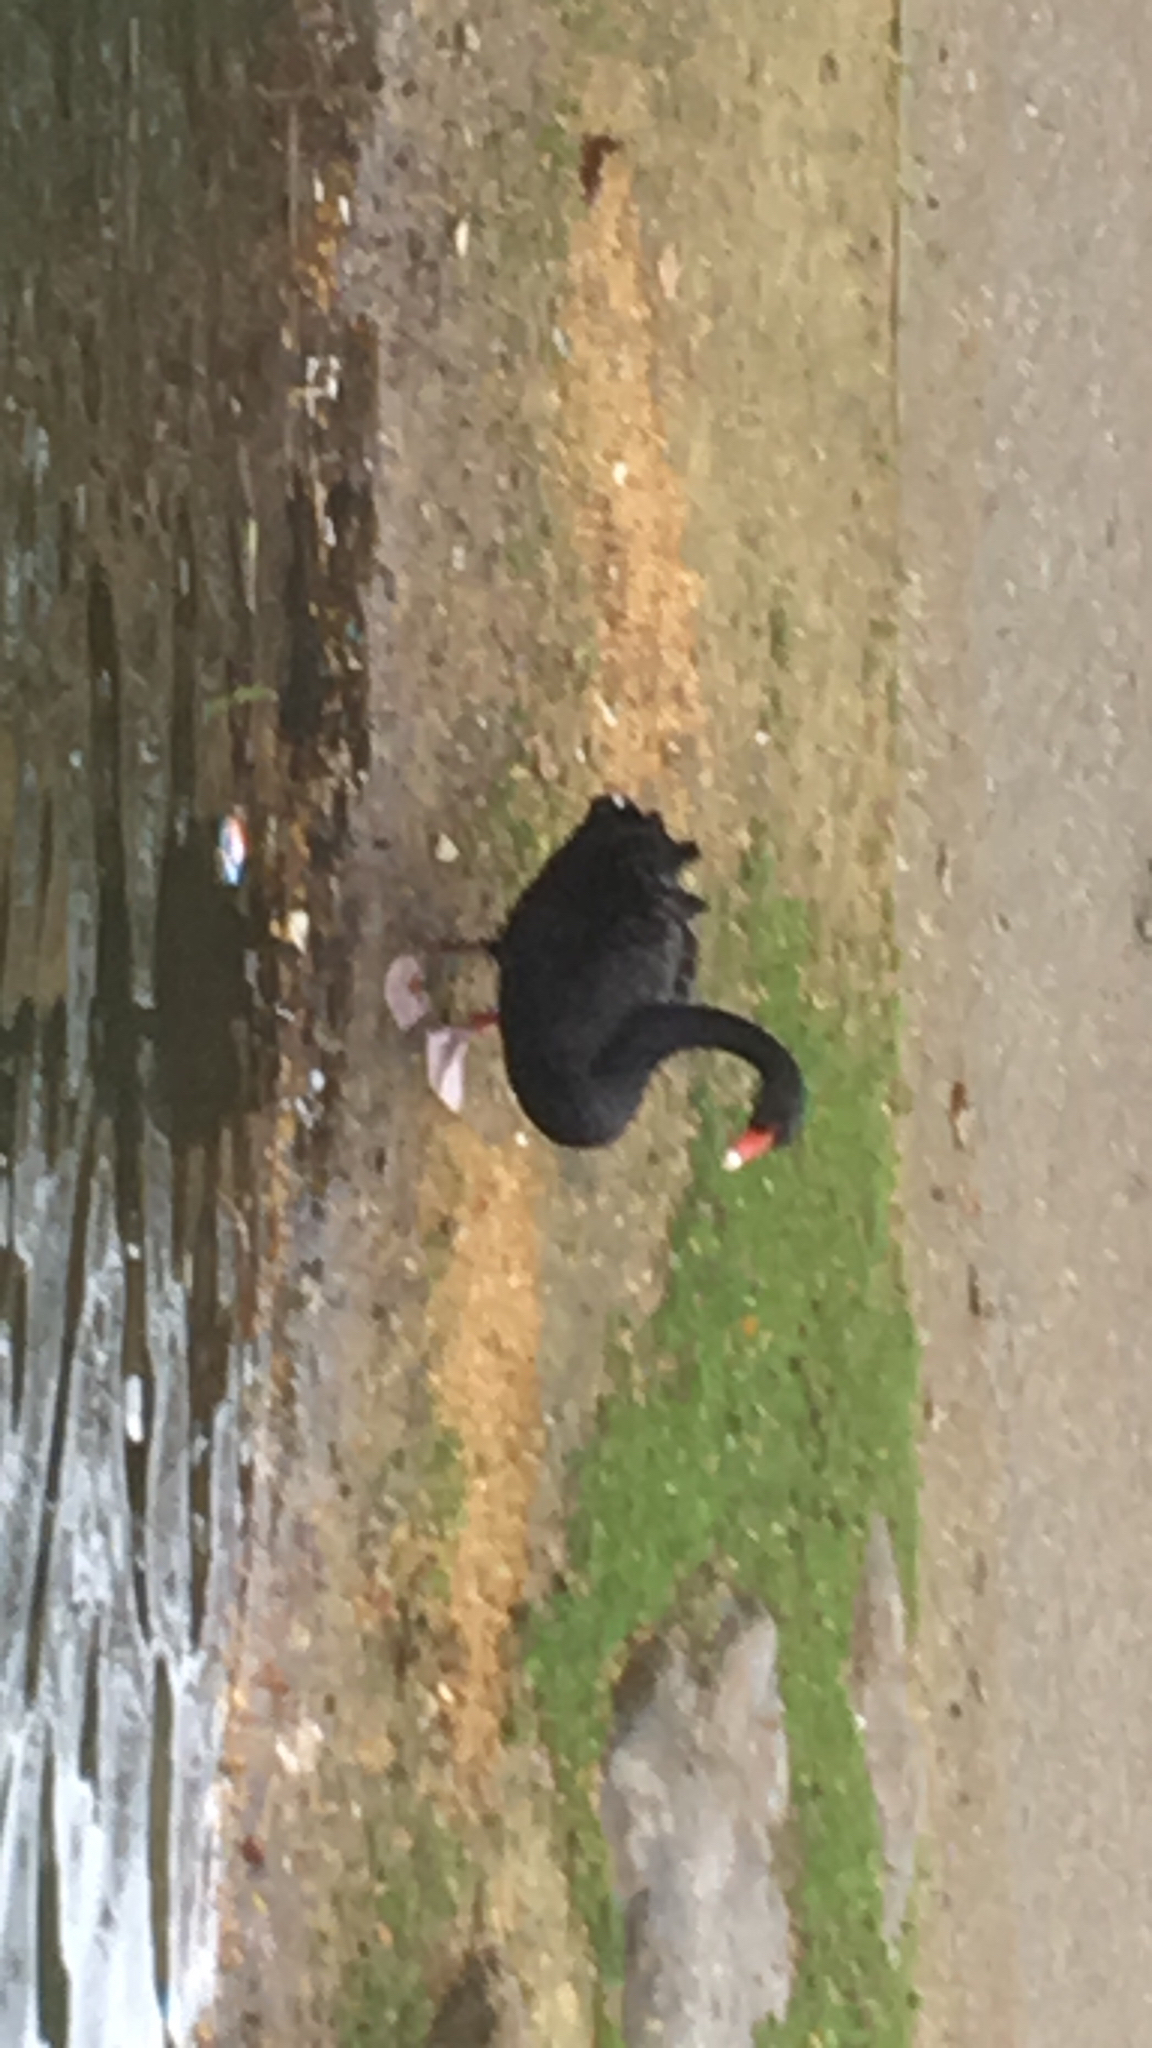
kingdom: Animalia
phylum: Chordata
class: Aves
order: Anseriformes
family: Anatidae
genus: Cygnus
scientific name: Cygnus atratus
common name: Black swan
